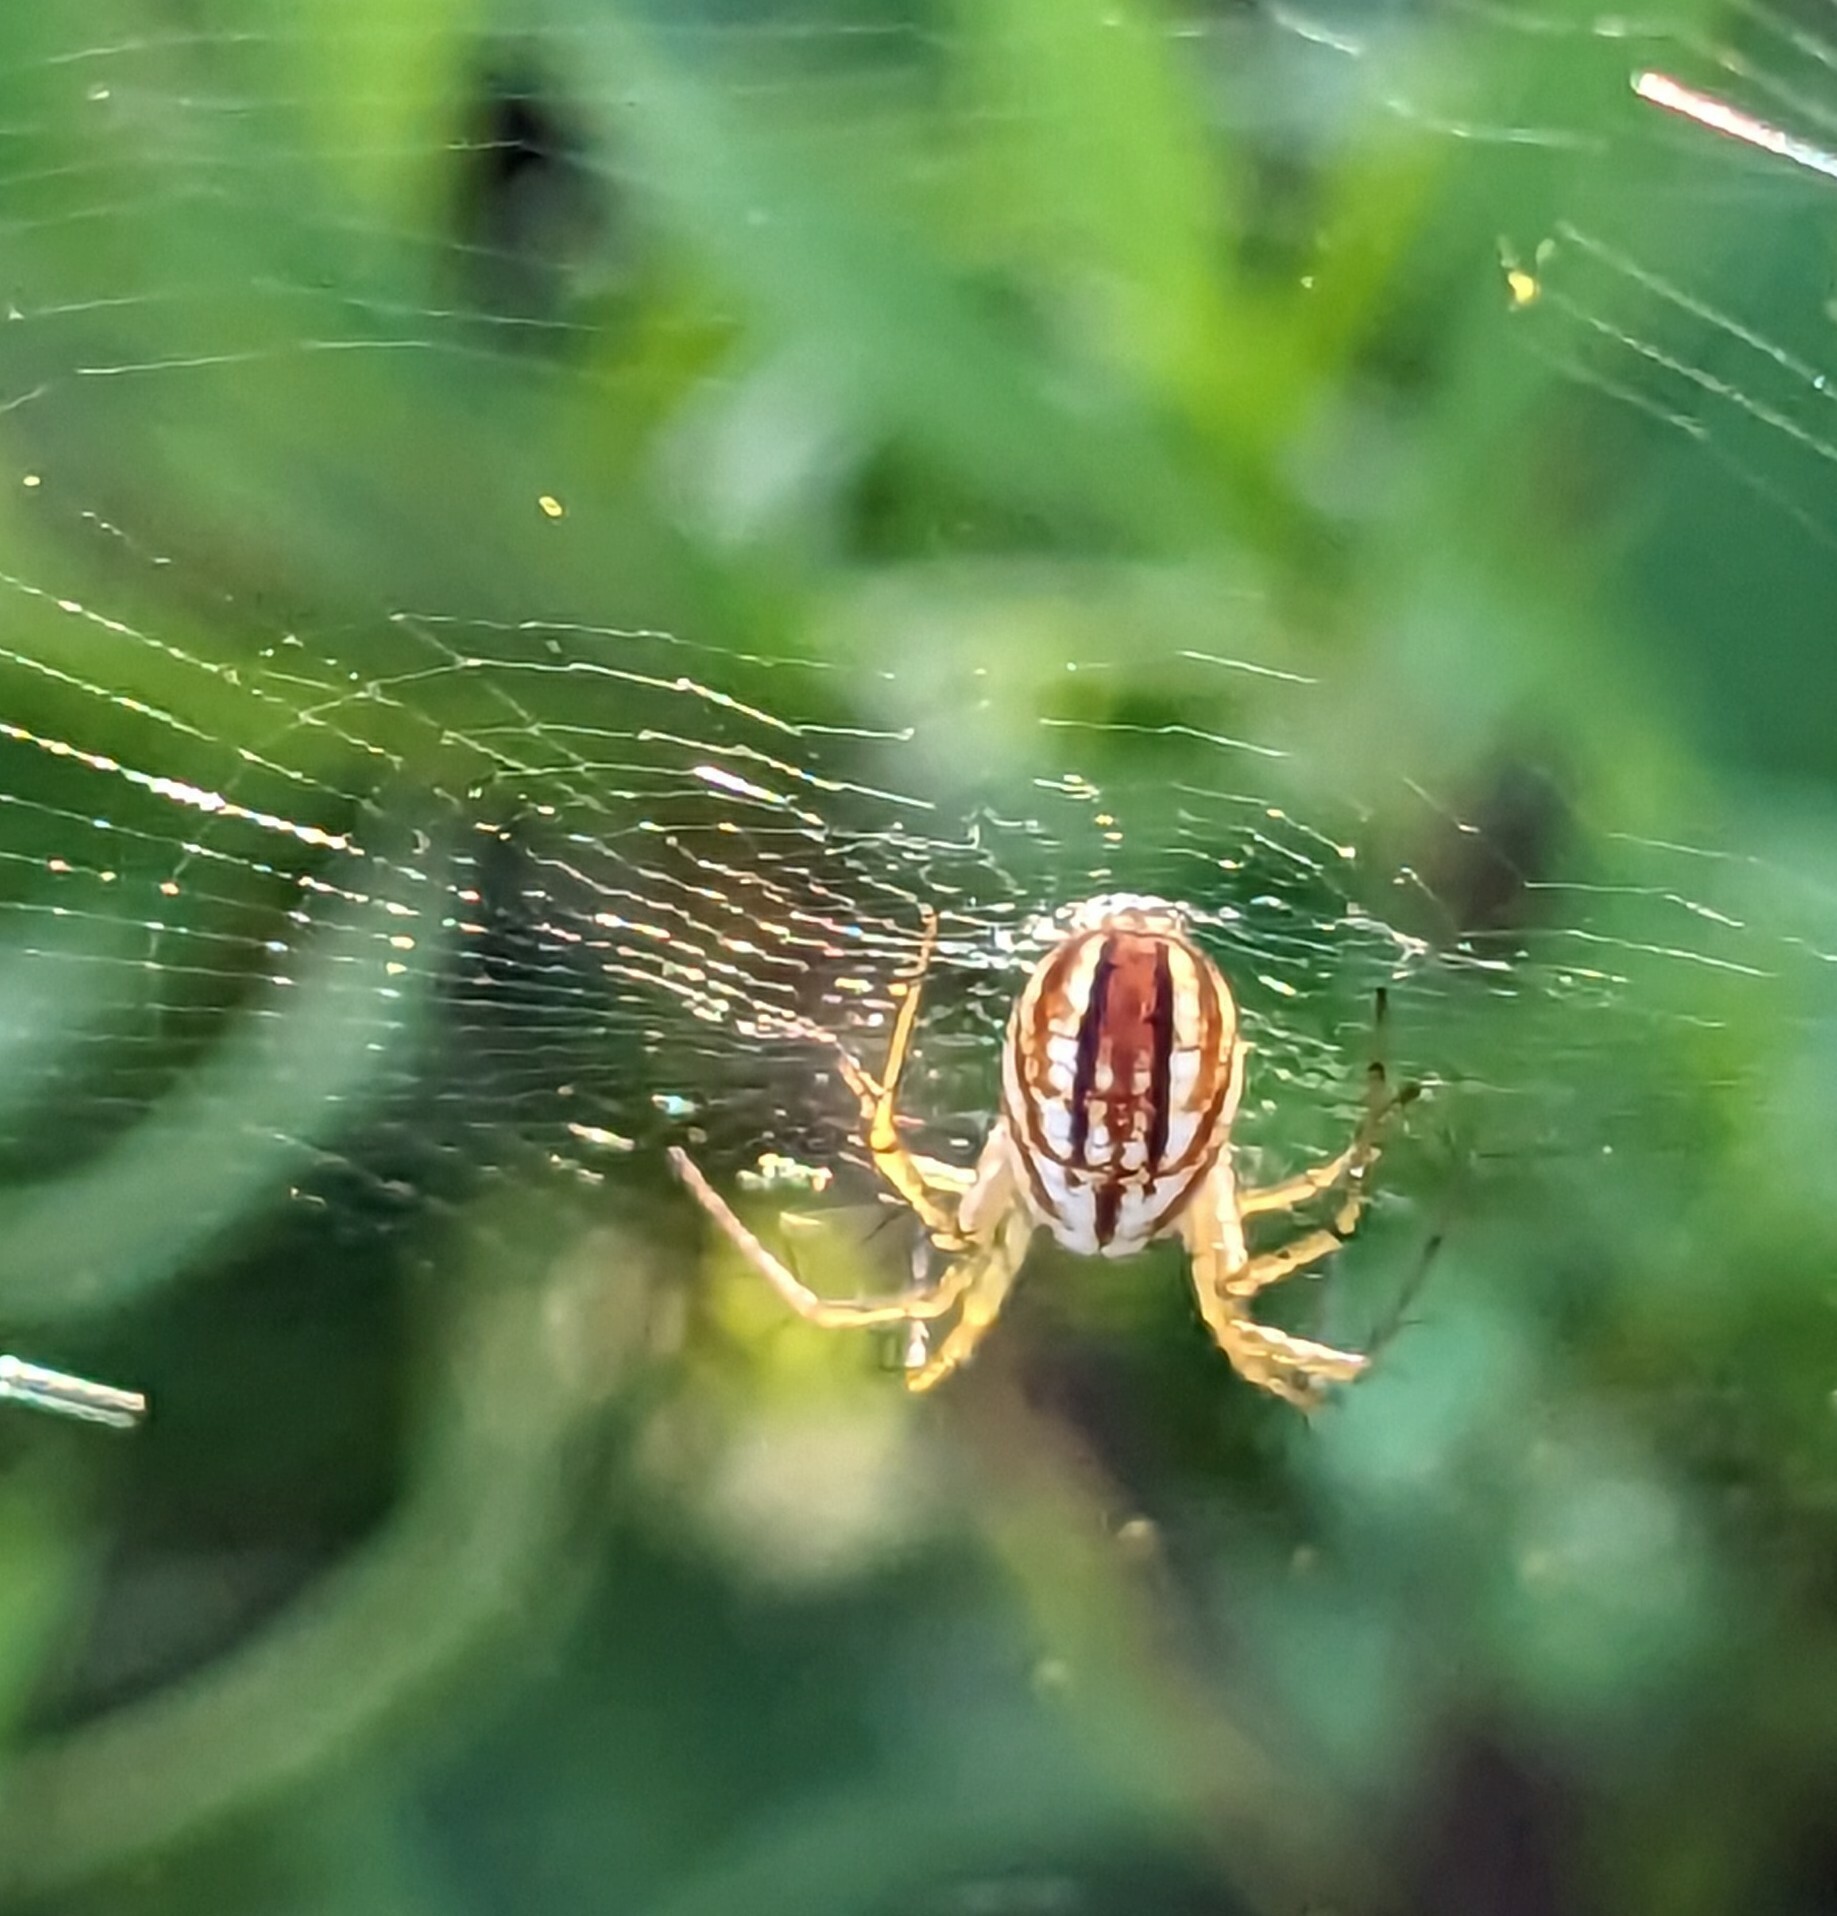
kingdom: Animalia
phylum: Arthropoda
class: Arachnida
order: Araneae
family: Araneidae
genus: Mangora
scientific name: Mangora gibberosa
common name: Lined orbweaver
